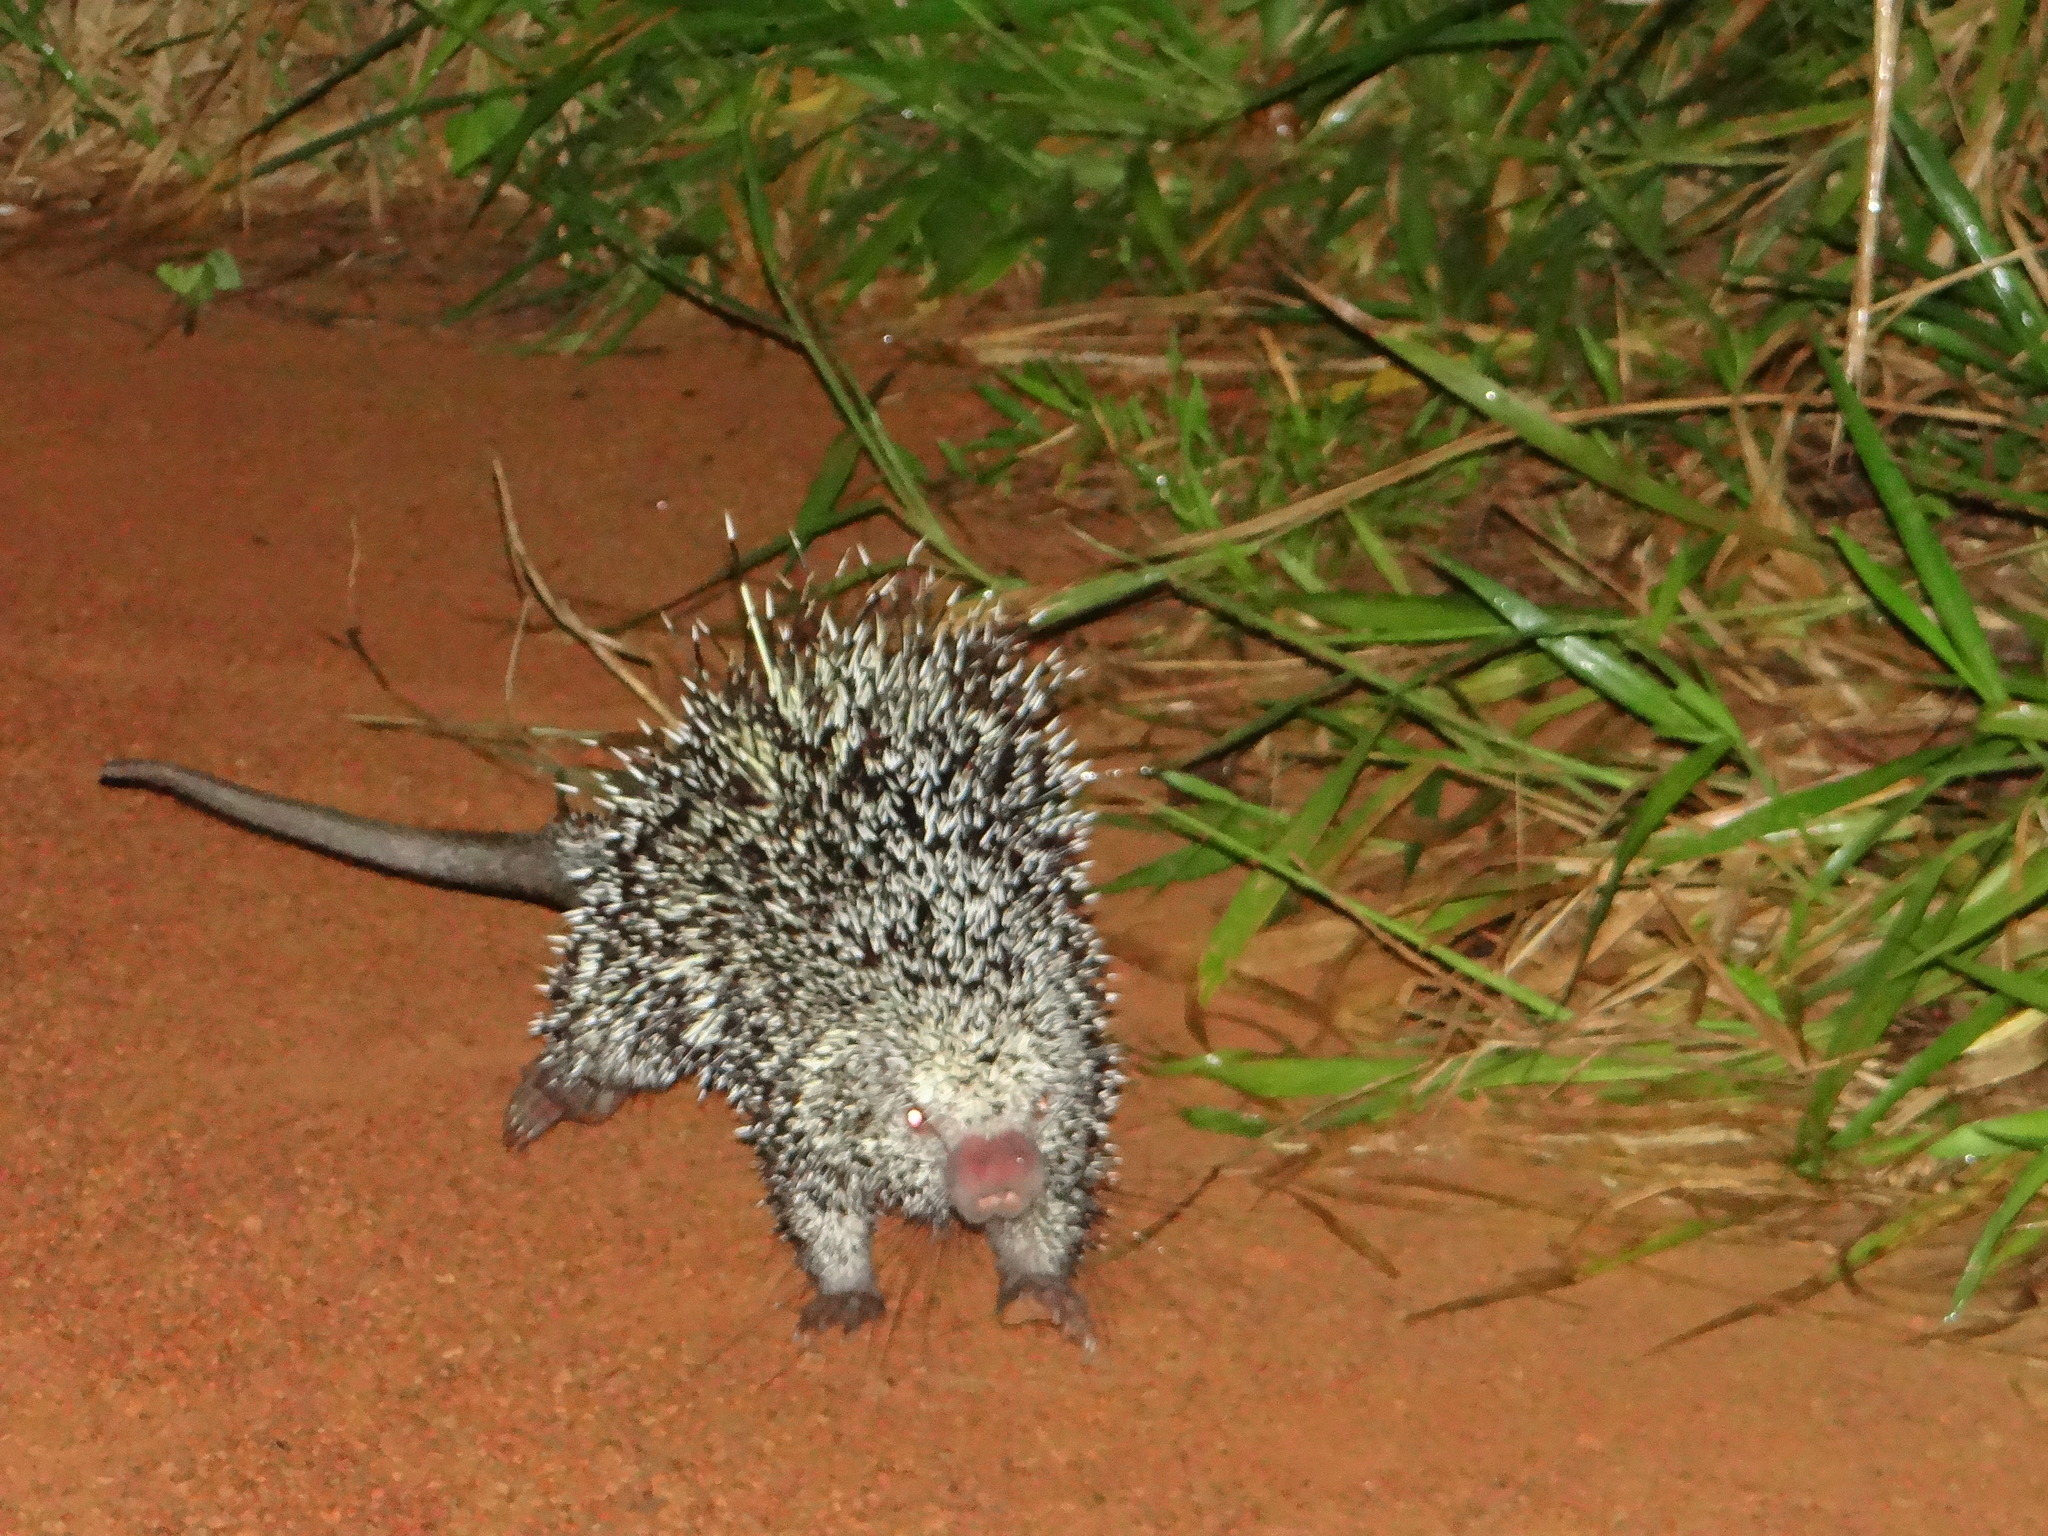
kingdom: Animalia
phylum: Chordata
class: Mammalia
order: Rodentia
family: Erethizontidae
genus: Coendou
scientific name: Coendou longicaudatus
